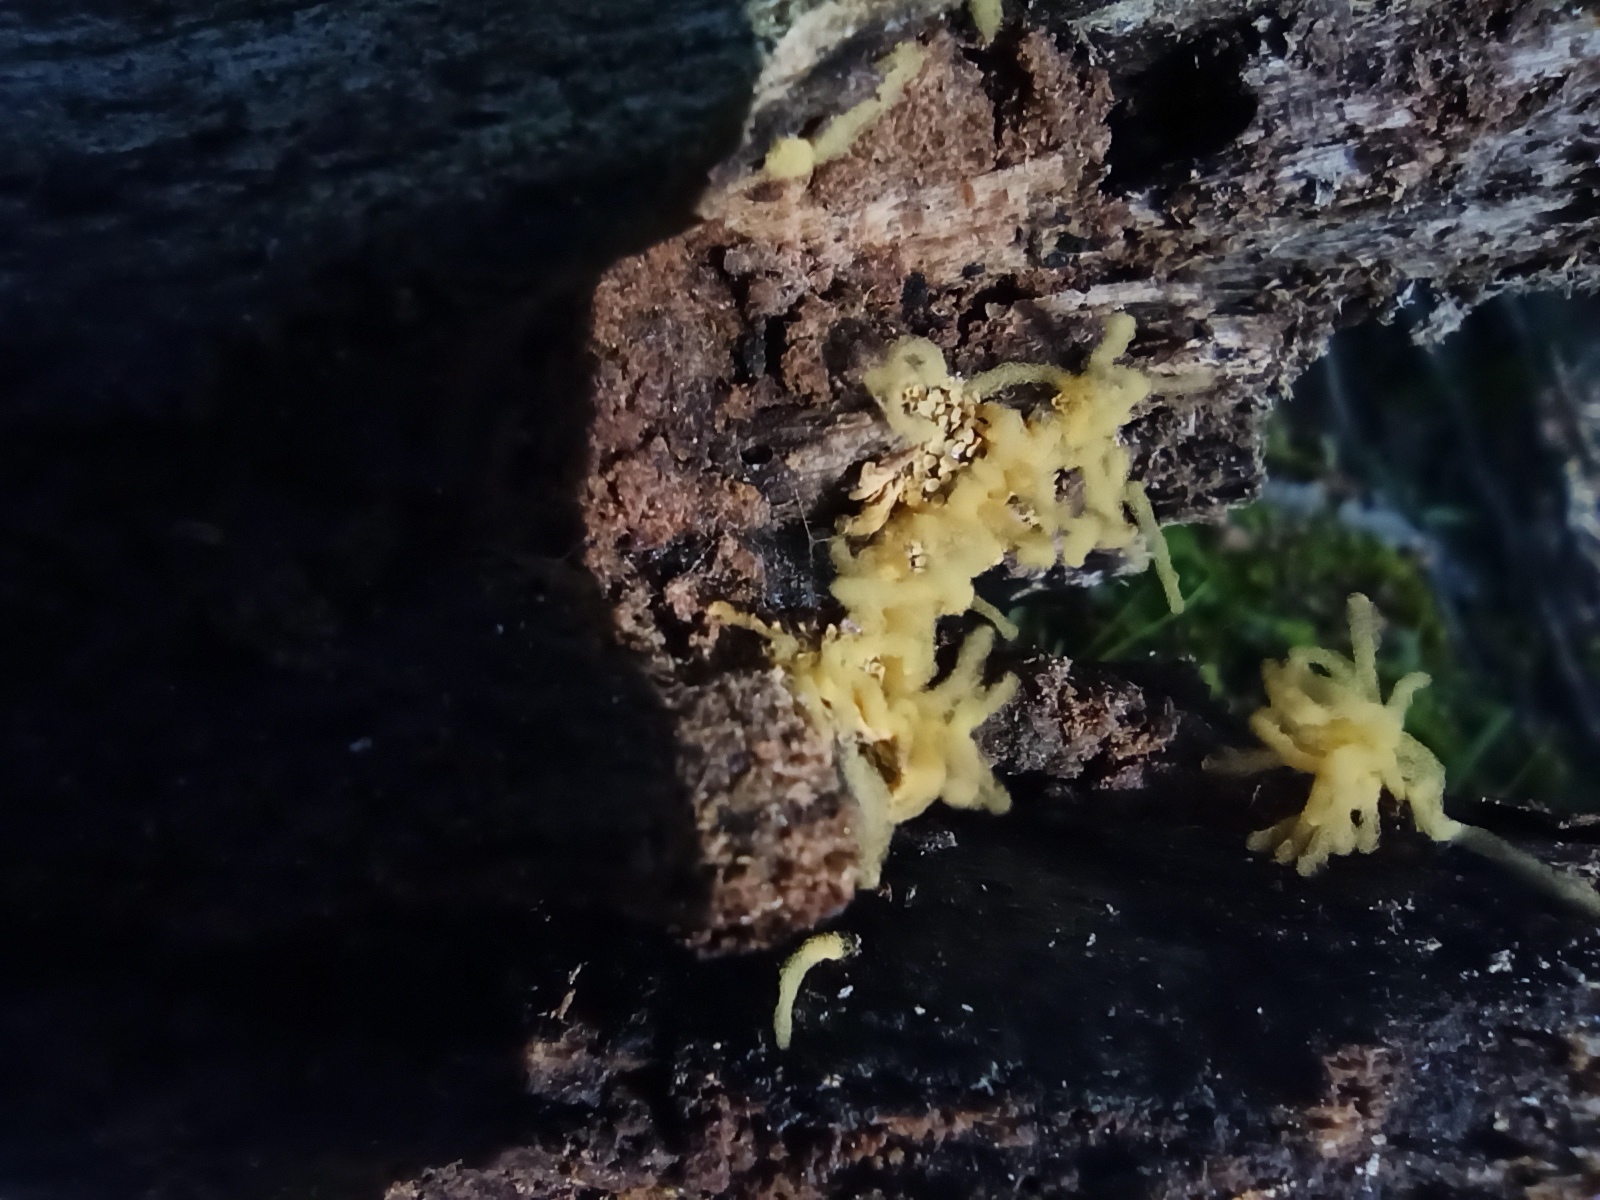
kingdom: Protozoa
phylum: Mycetozoa
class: Myxomycetes
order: Trichiales
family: Arcyriaceae
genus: Arcyria
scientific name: Arcyria obvelata
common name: Yellow carnival candy slime
